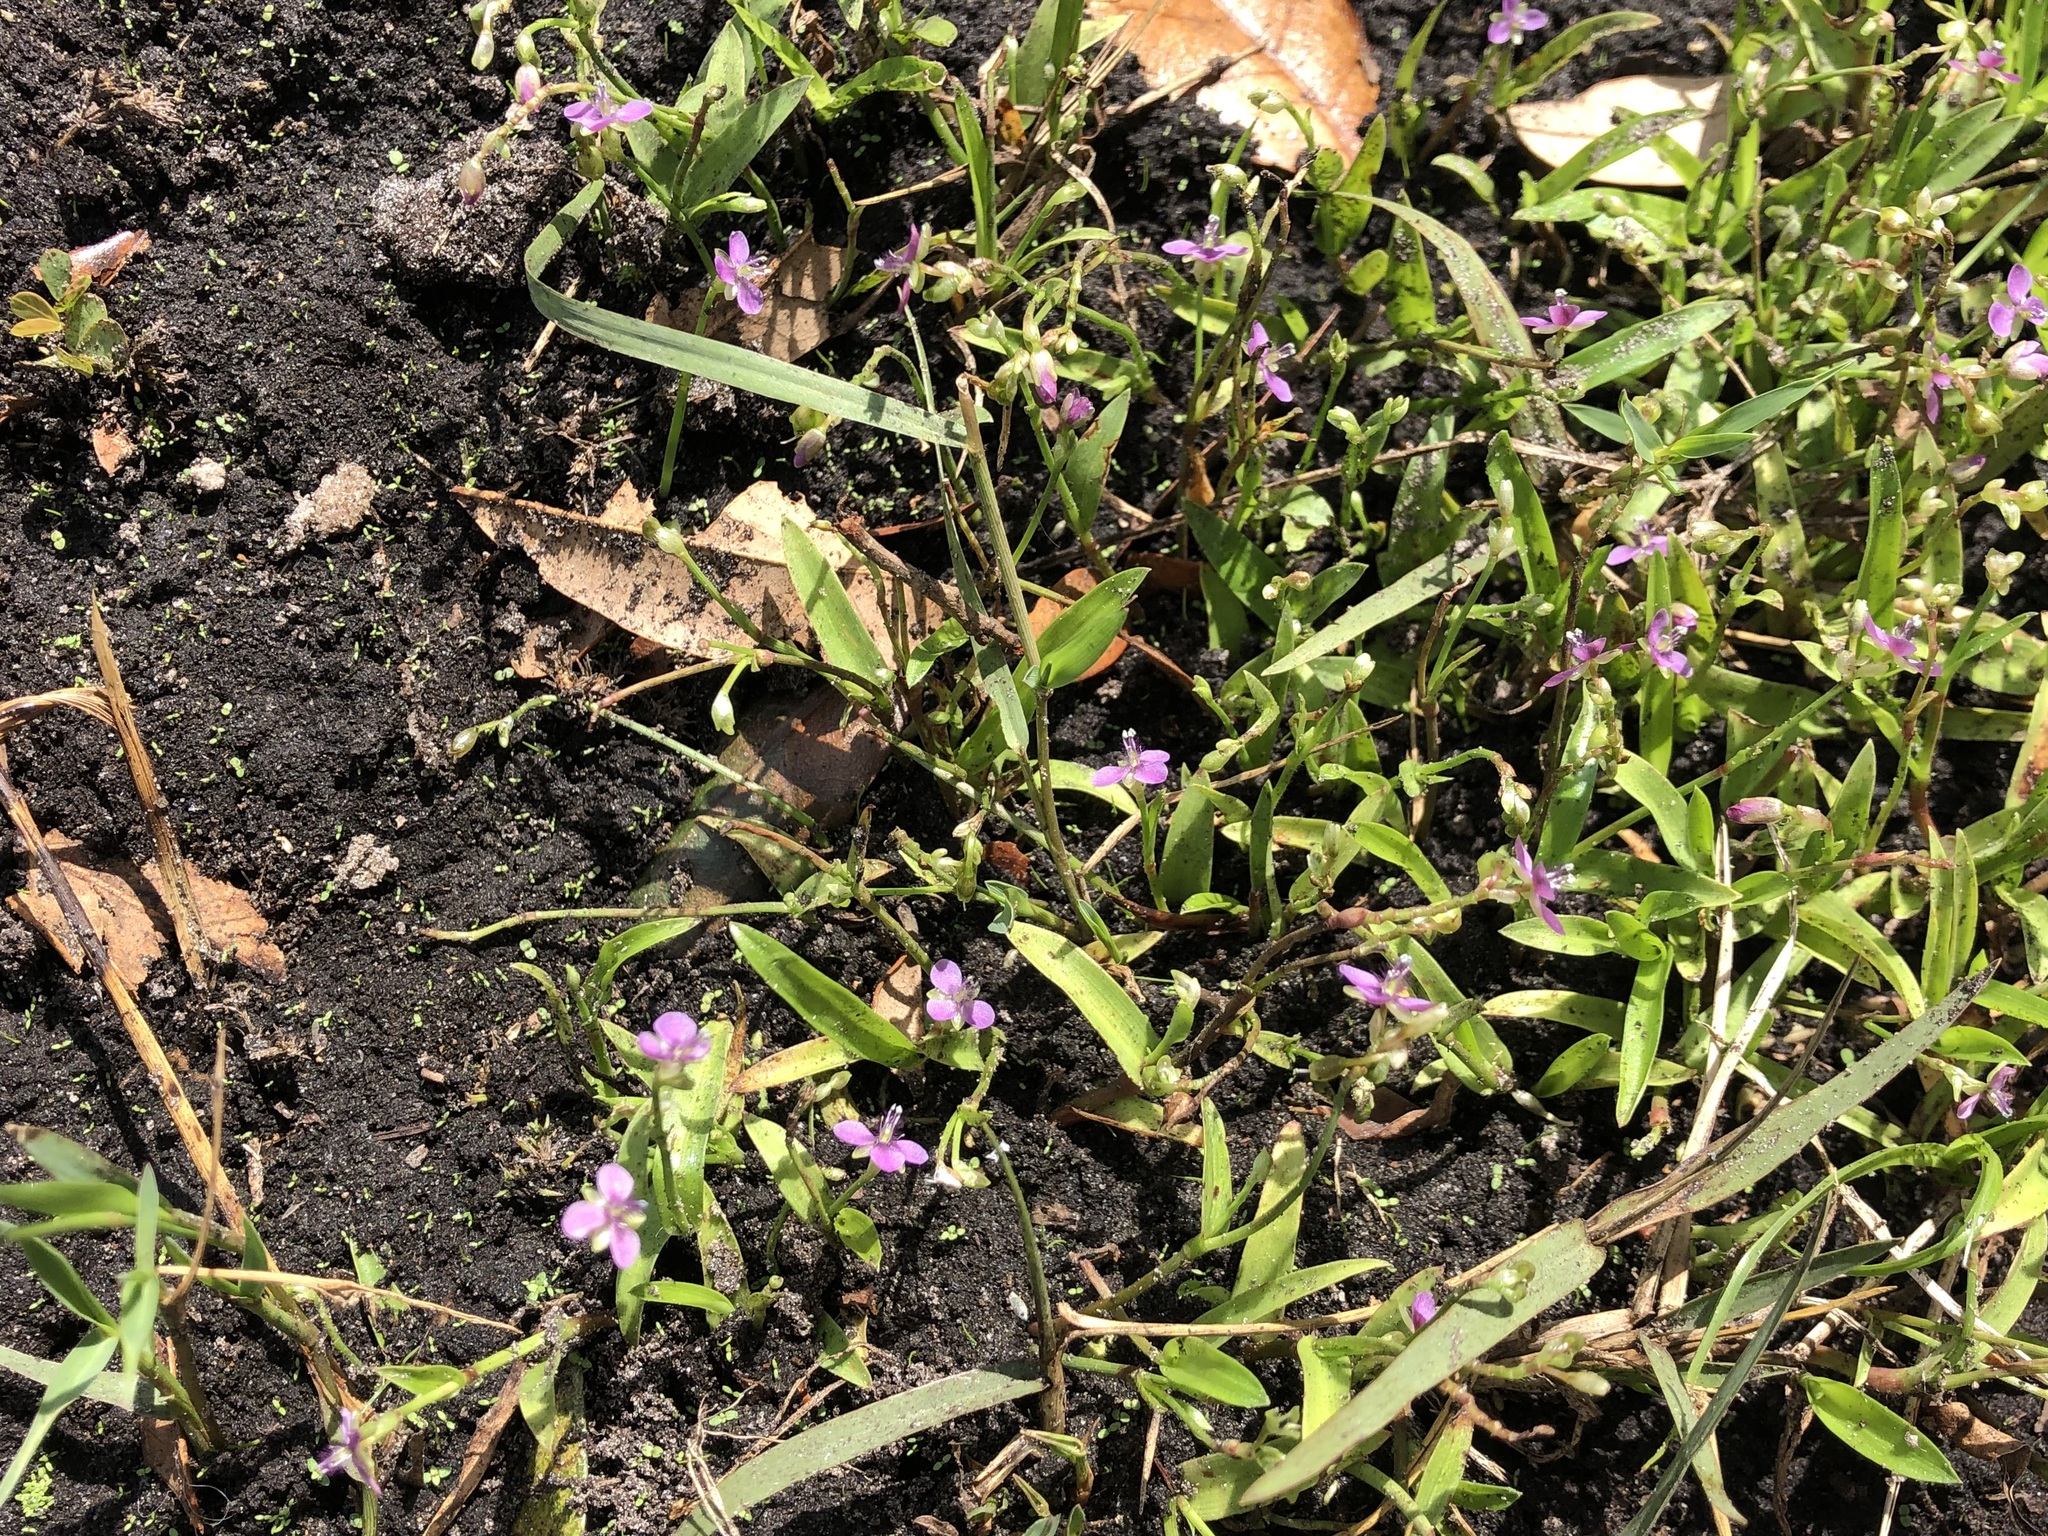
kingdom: Plantae
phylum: Tracheophyta
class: Liliopsida
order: Commelinales
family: Commelinaceae
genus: Murdannia
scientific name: Murdannia nudiflora
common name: Nakedstem dewflower
